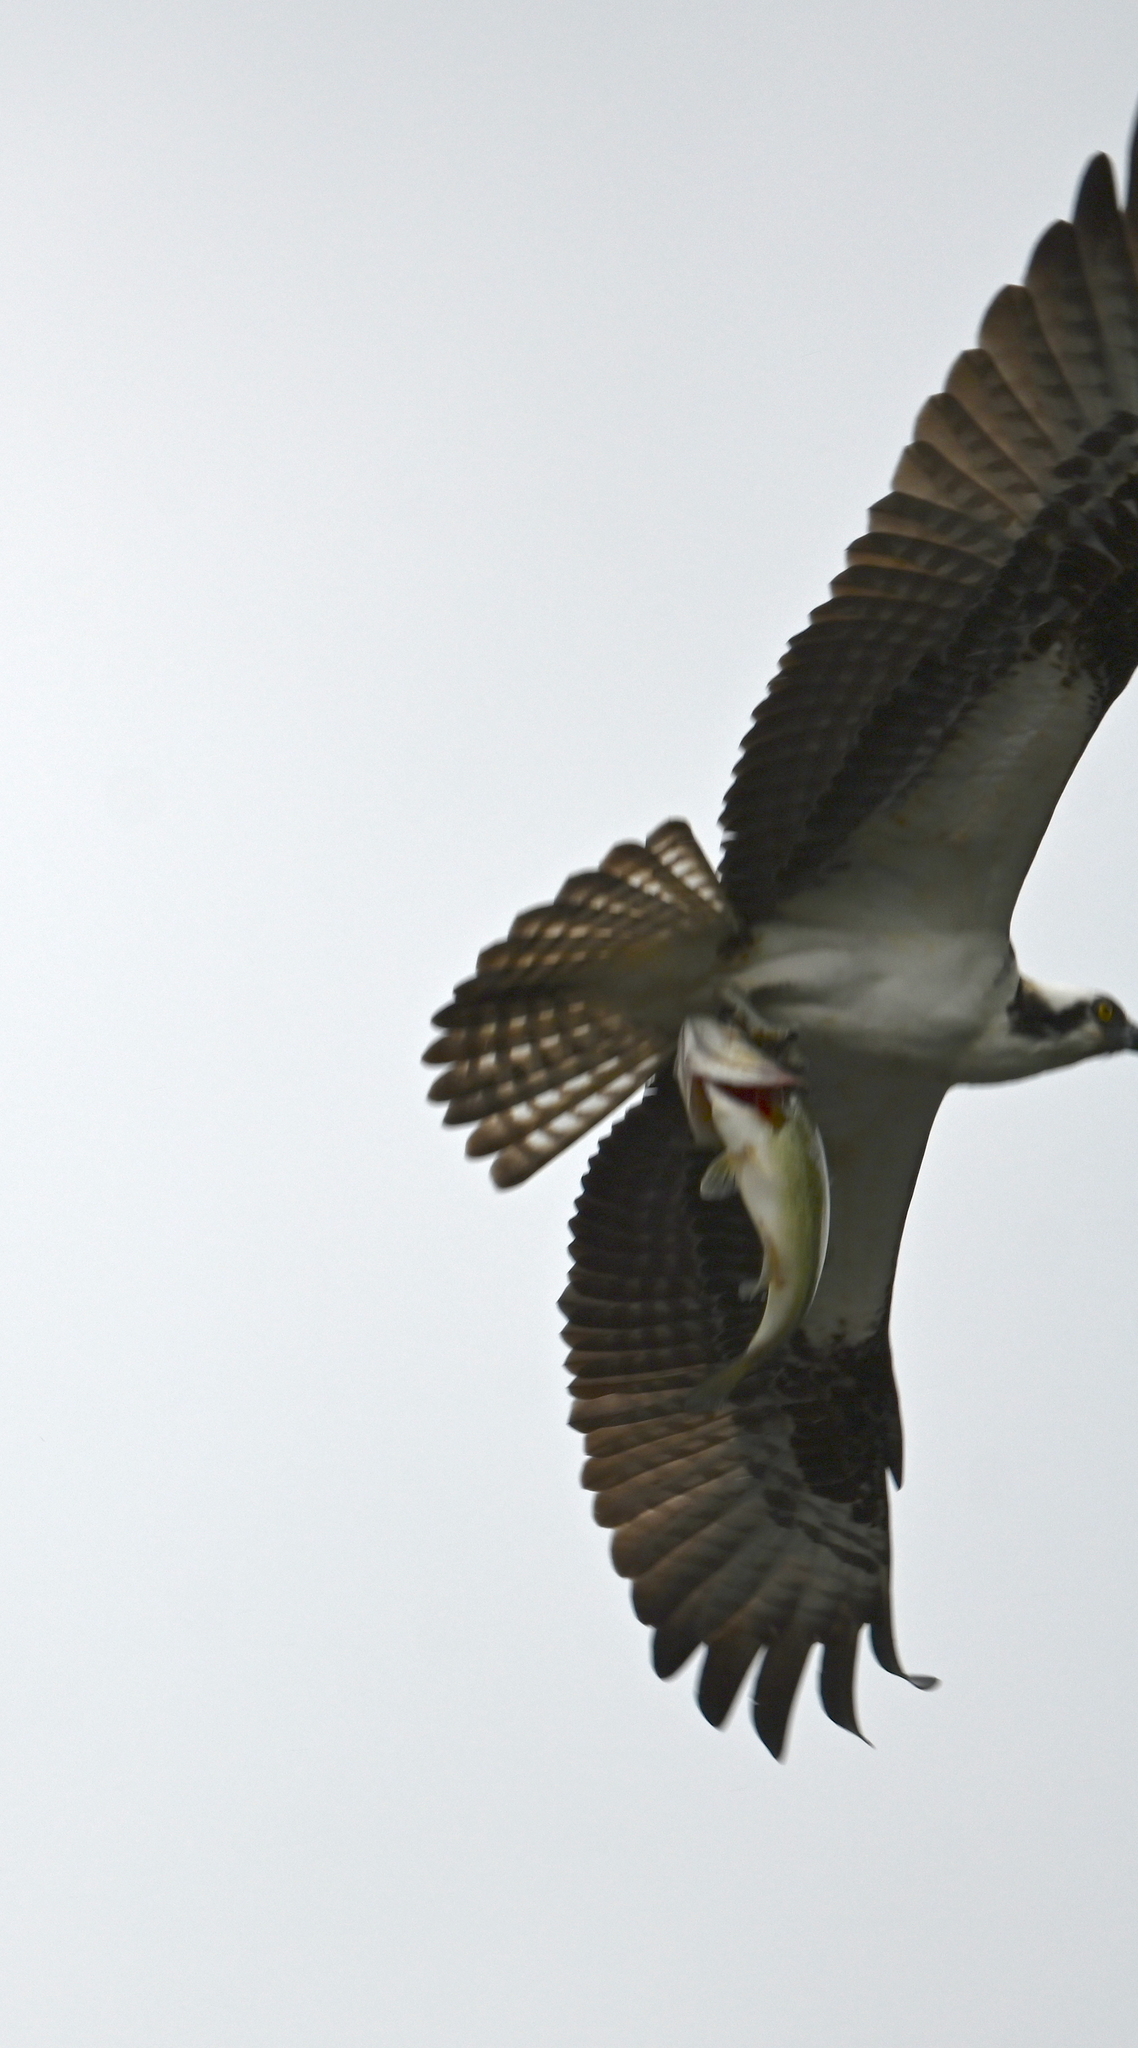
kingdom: Animalia
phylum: Chordata
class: Aves
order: Accipitriformes
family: Pandionidae
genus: Pandion
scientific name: Pandion haliaetus
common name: Osprey
